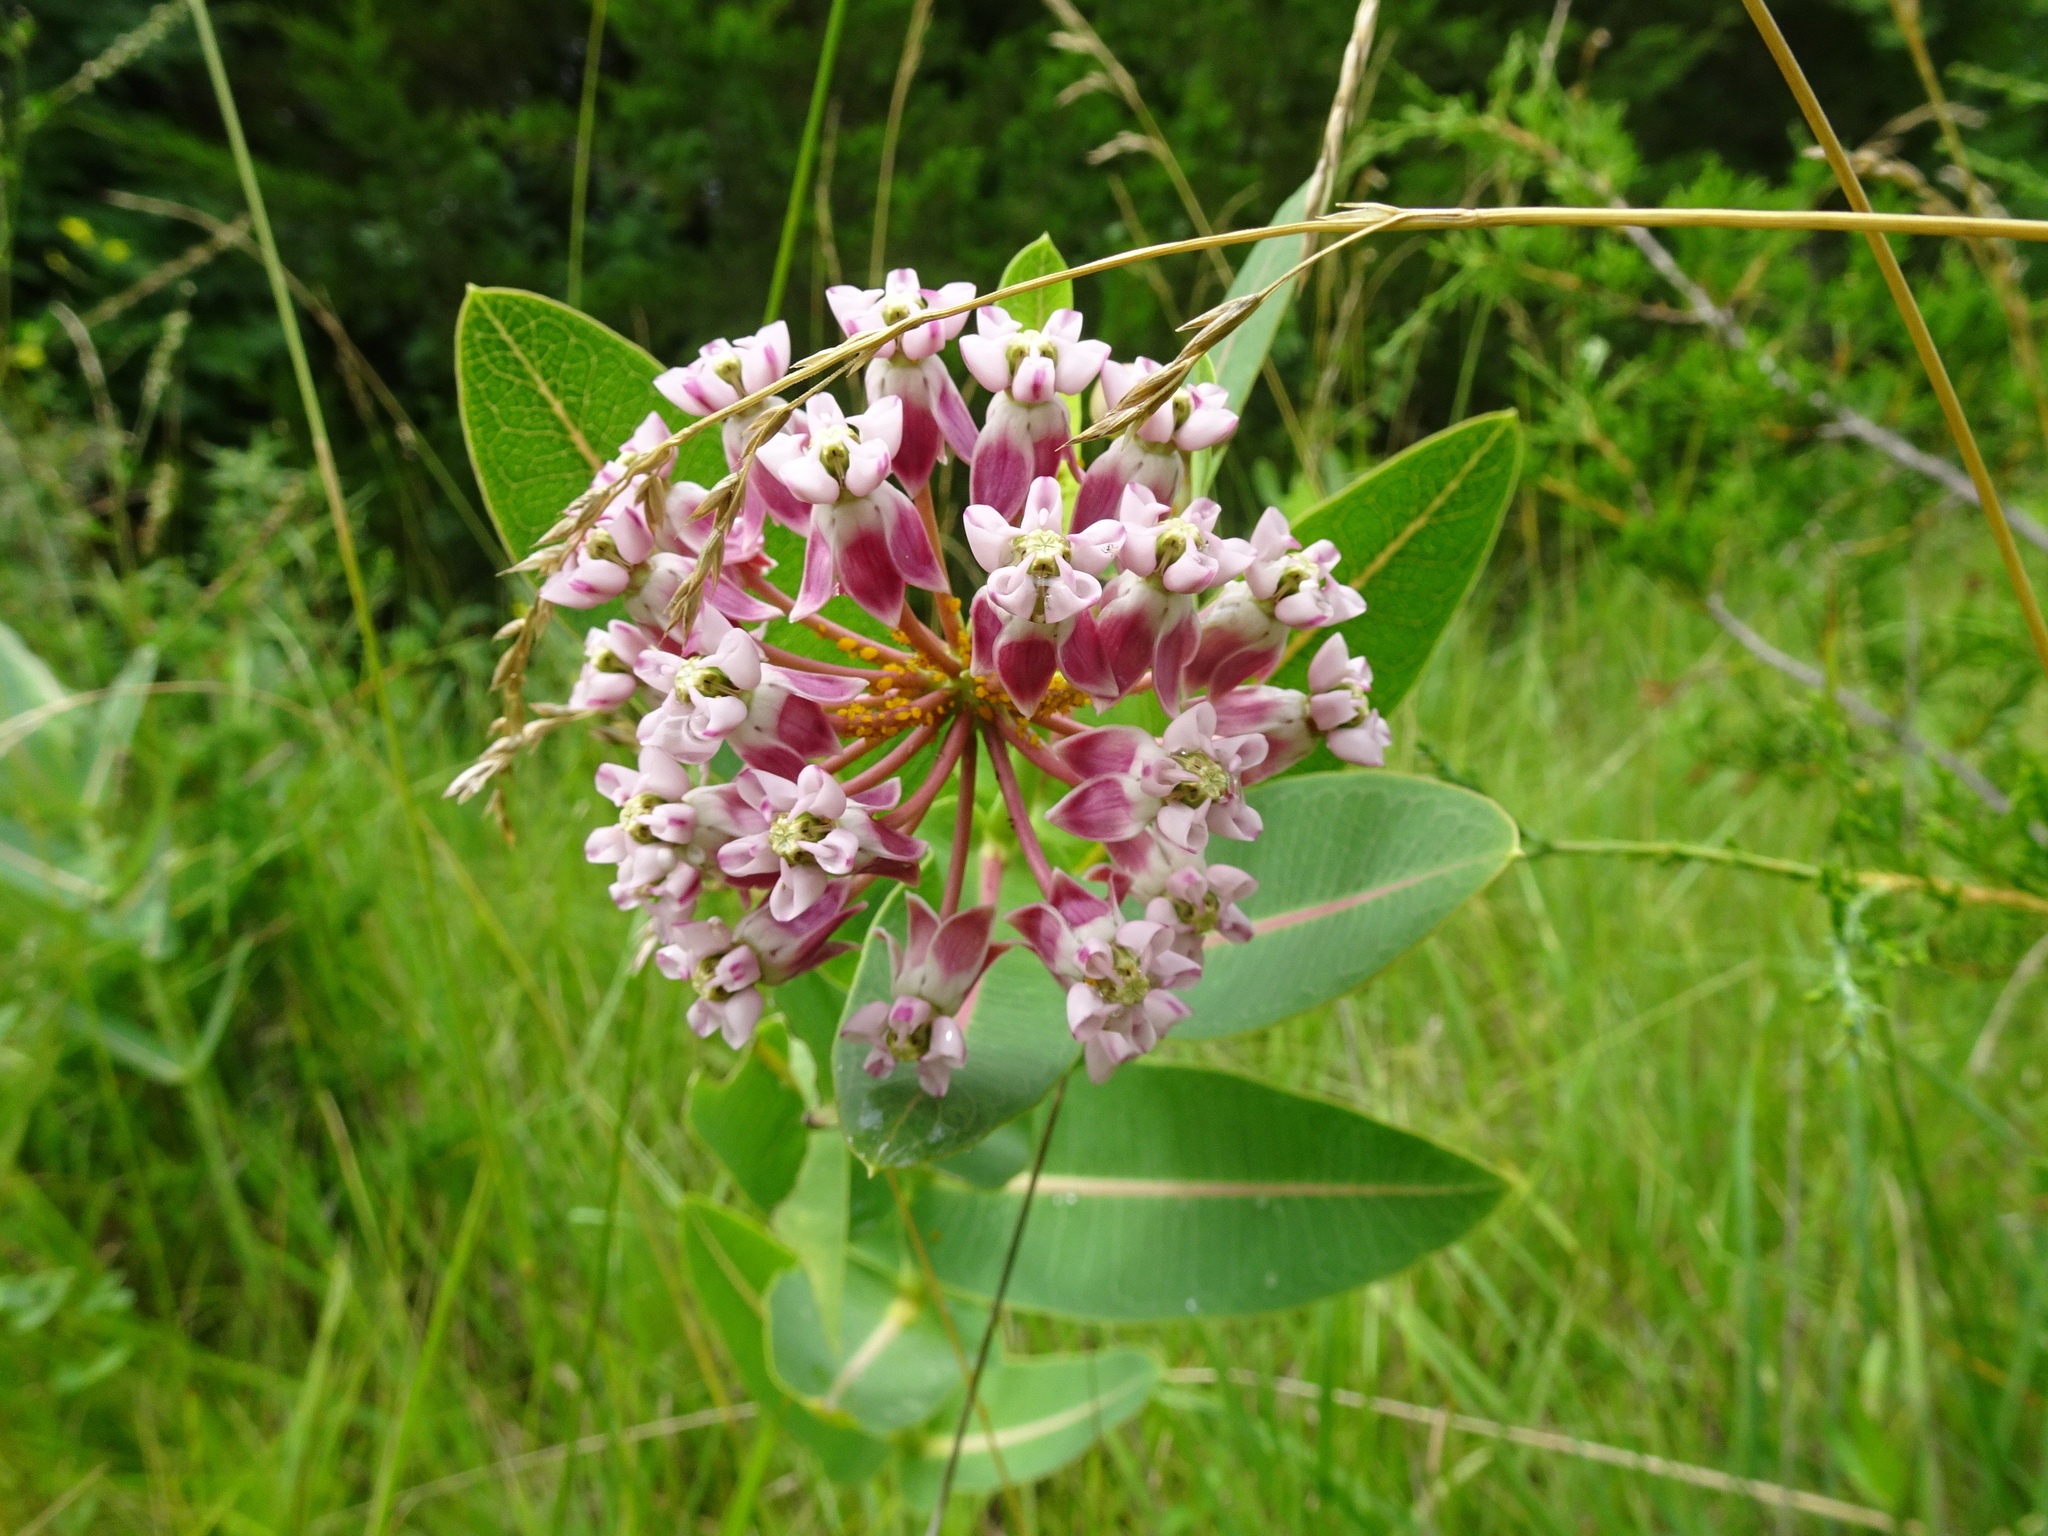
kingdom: Plantae
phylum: Tracheophyta
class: Magnoliopsida
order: Gentianales
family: Apocynaceae
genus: Asclepias
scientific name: Asclepias sullivantii
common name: Prairie milkweed
